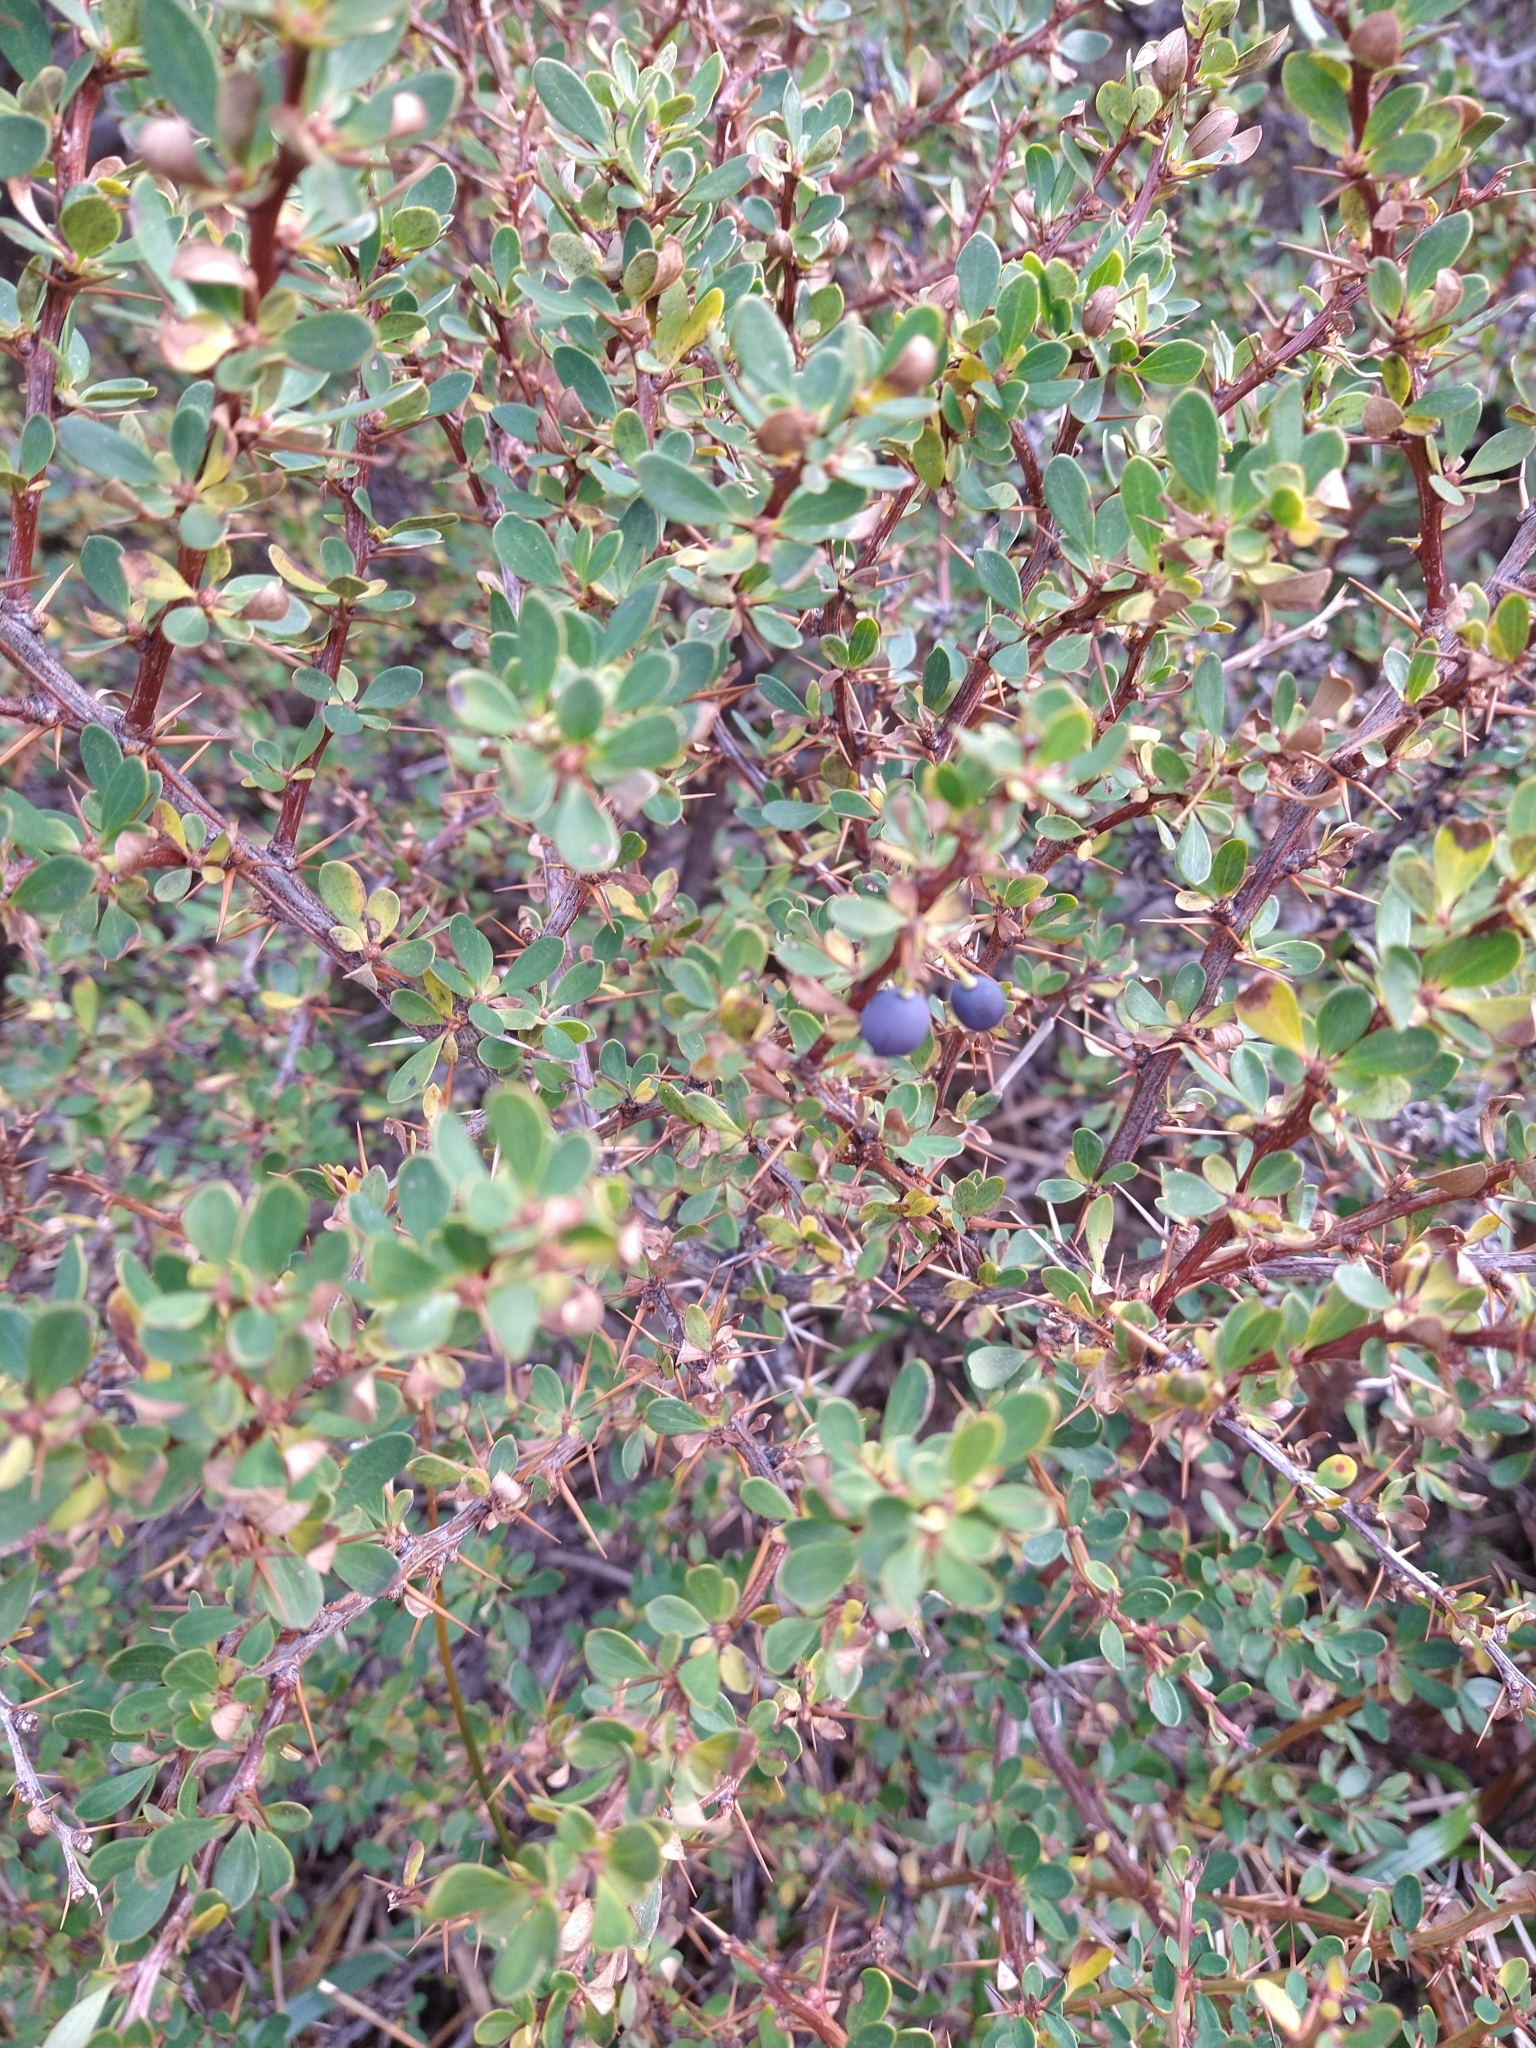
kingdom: Plantae
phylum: Tracheophyta
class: Magnoliopsida
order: Ranunculales
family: Berberidaceae
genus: Berberis
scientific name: Berberis microphylla
